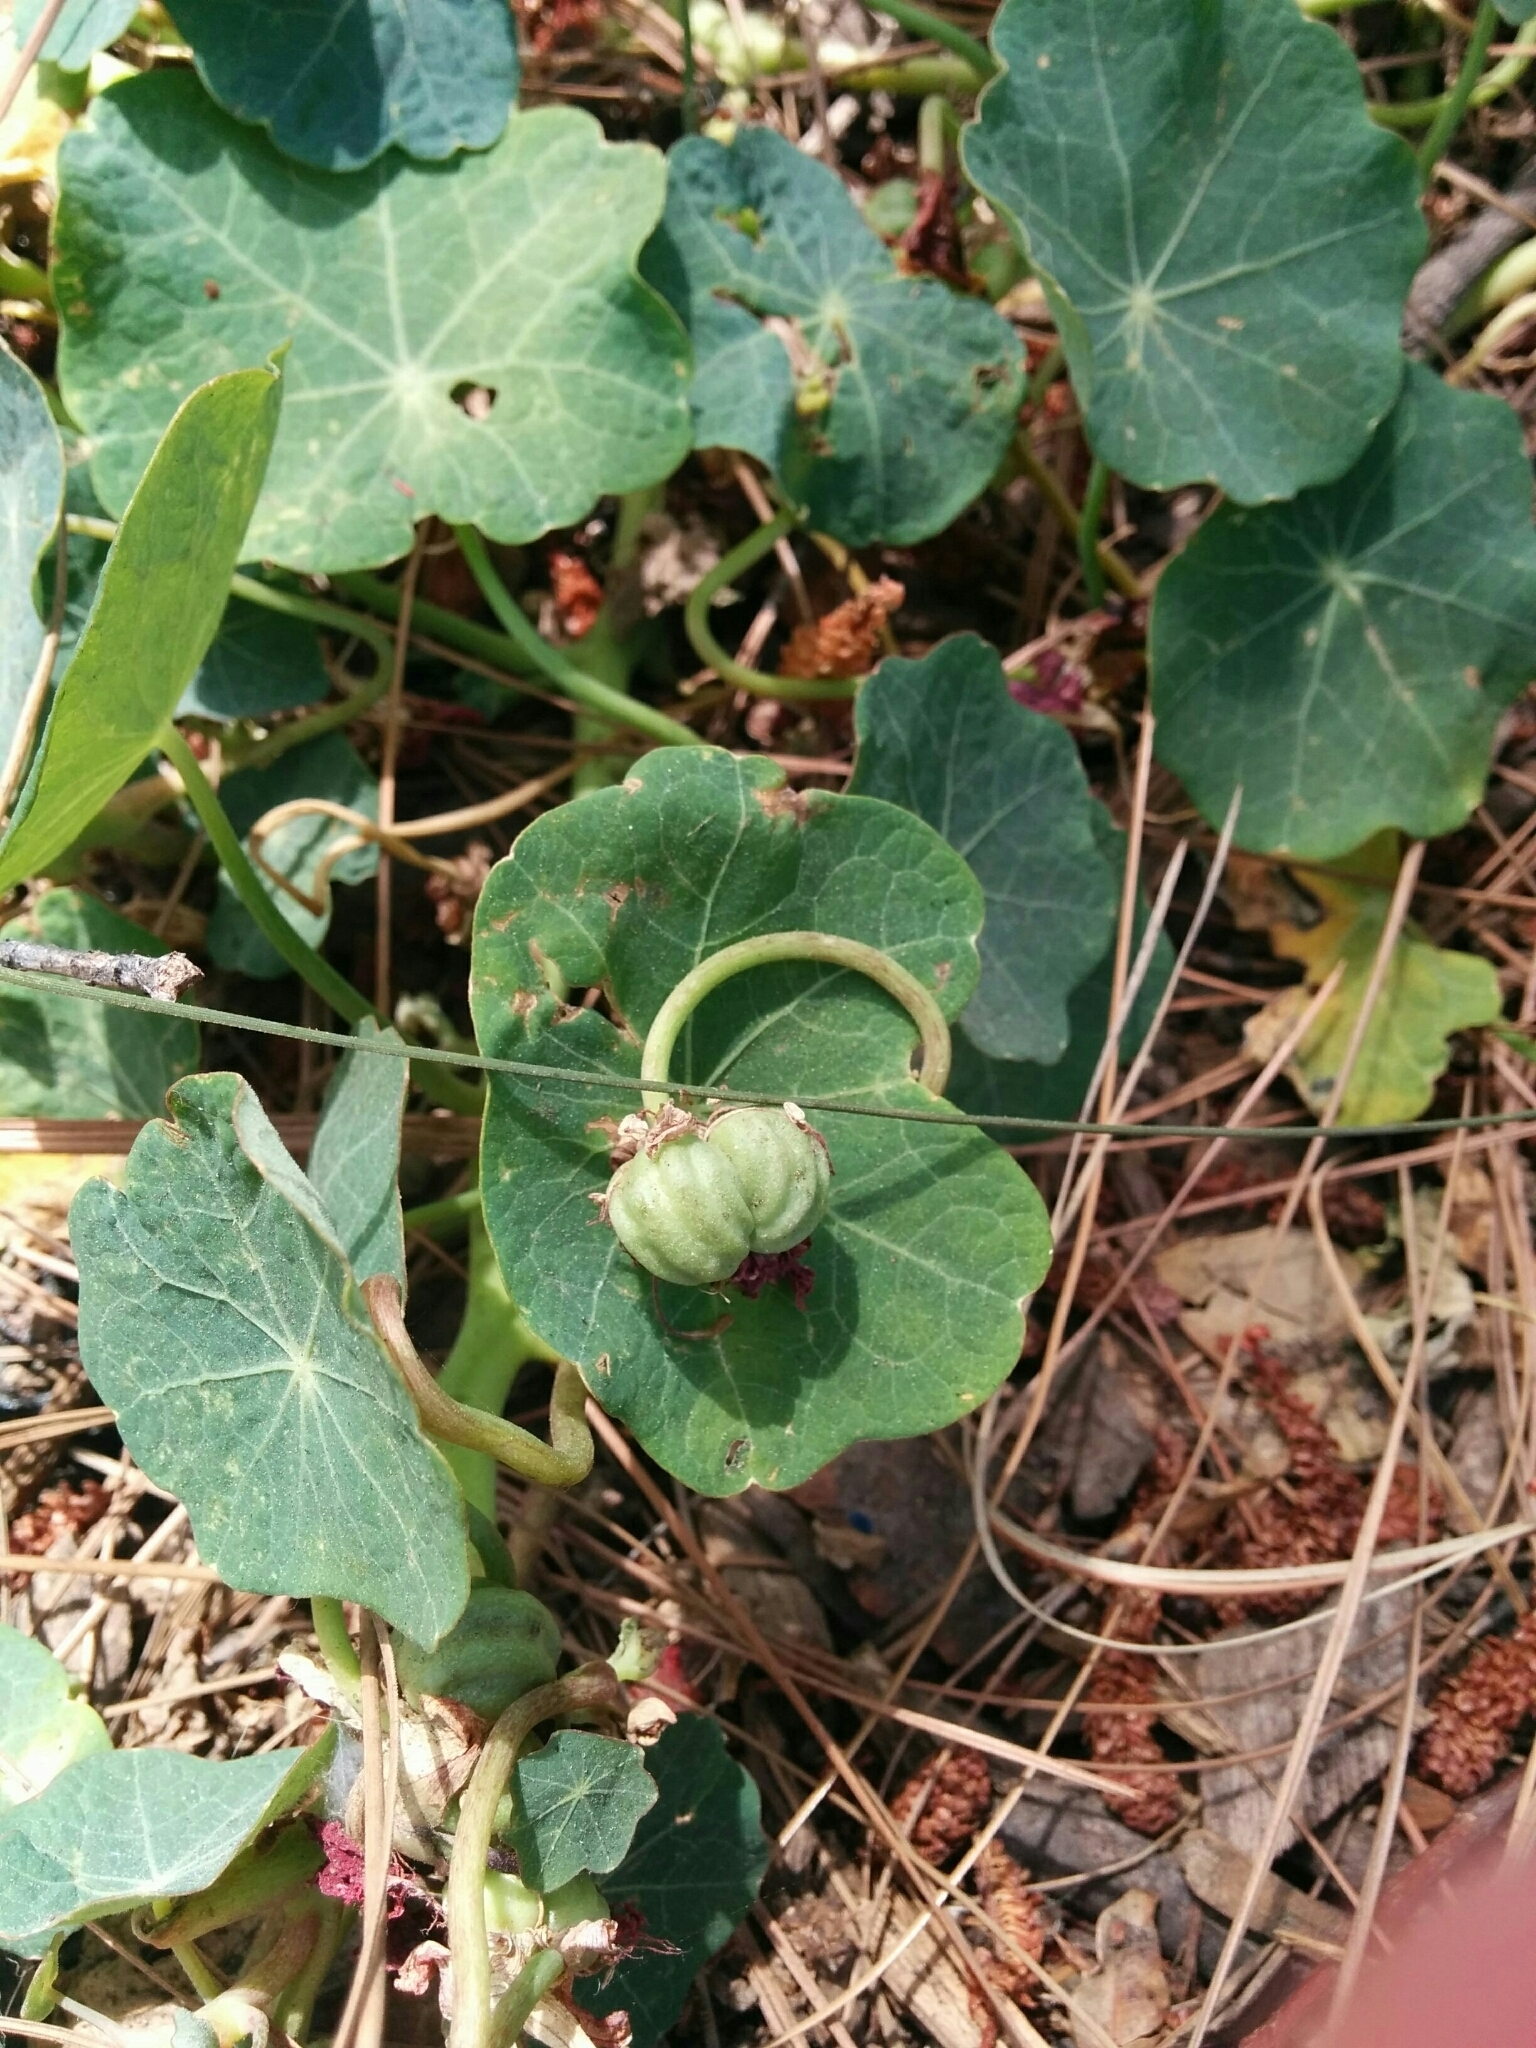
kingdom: Plantae
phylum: Tracheophyta
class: Magnoliopsida
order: Brassicales
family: Tropaeolaceae
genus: Tropaeolum
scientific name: Tropaeolum majus
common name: Nasturtium
